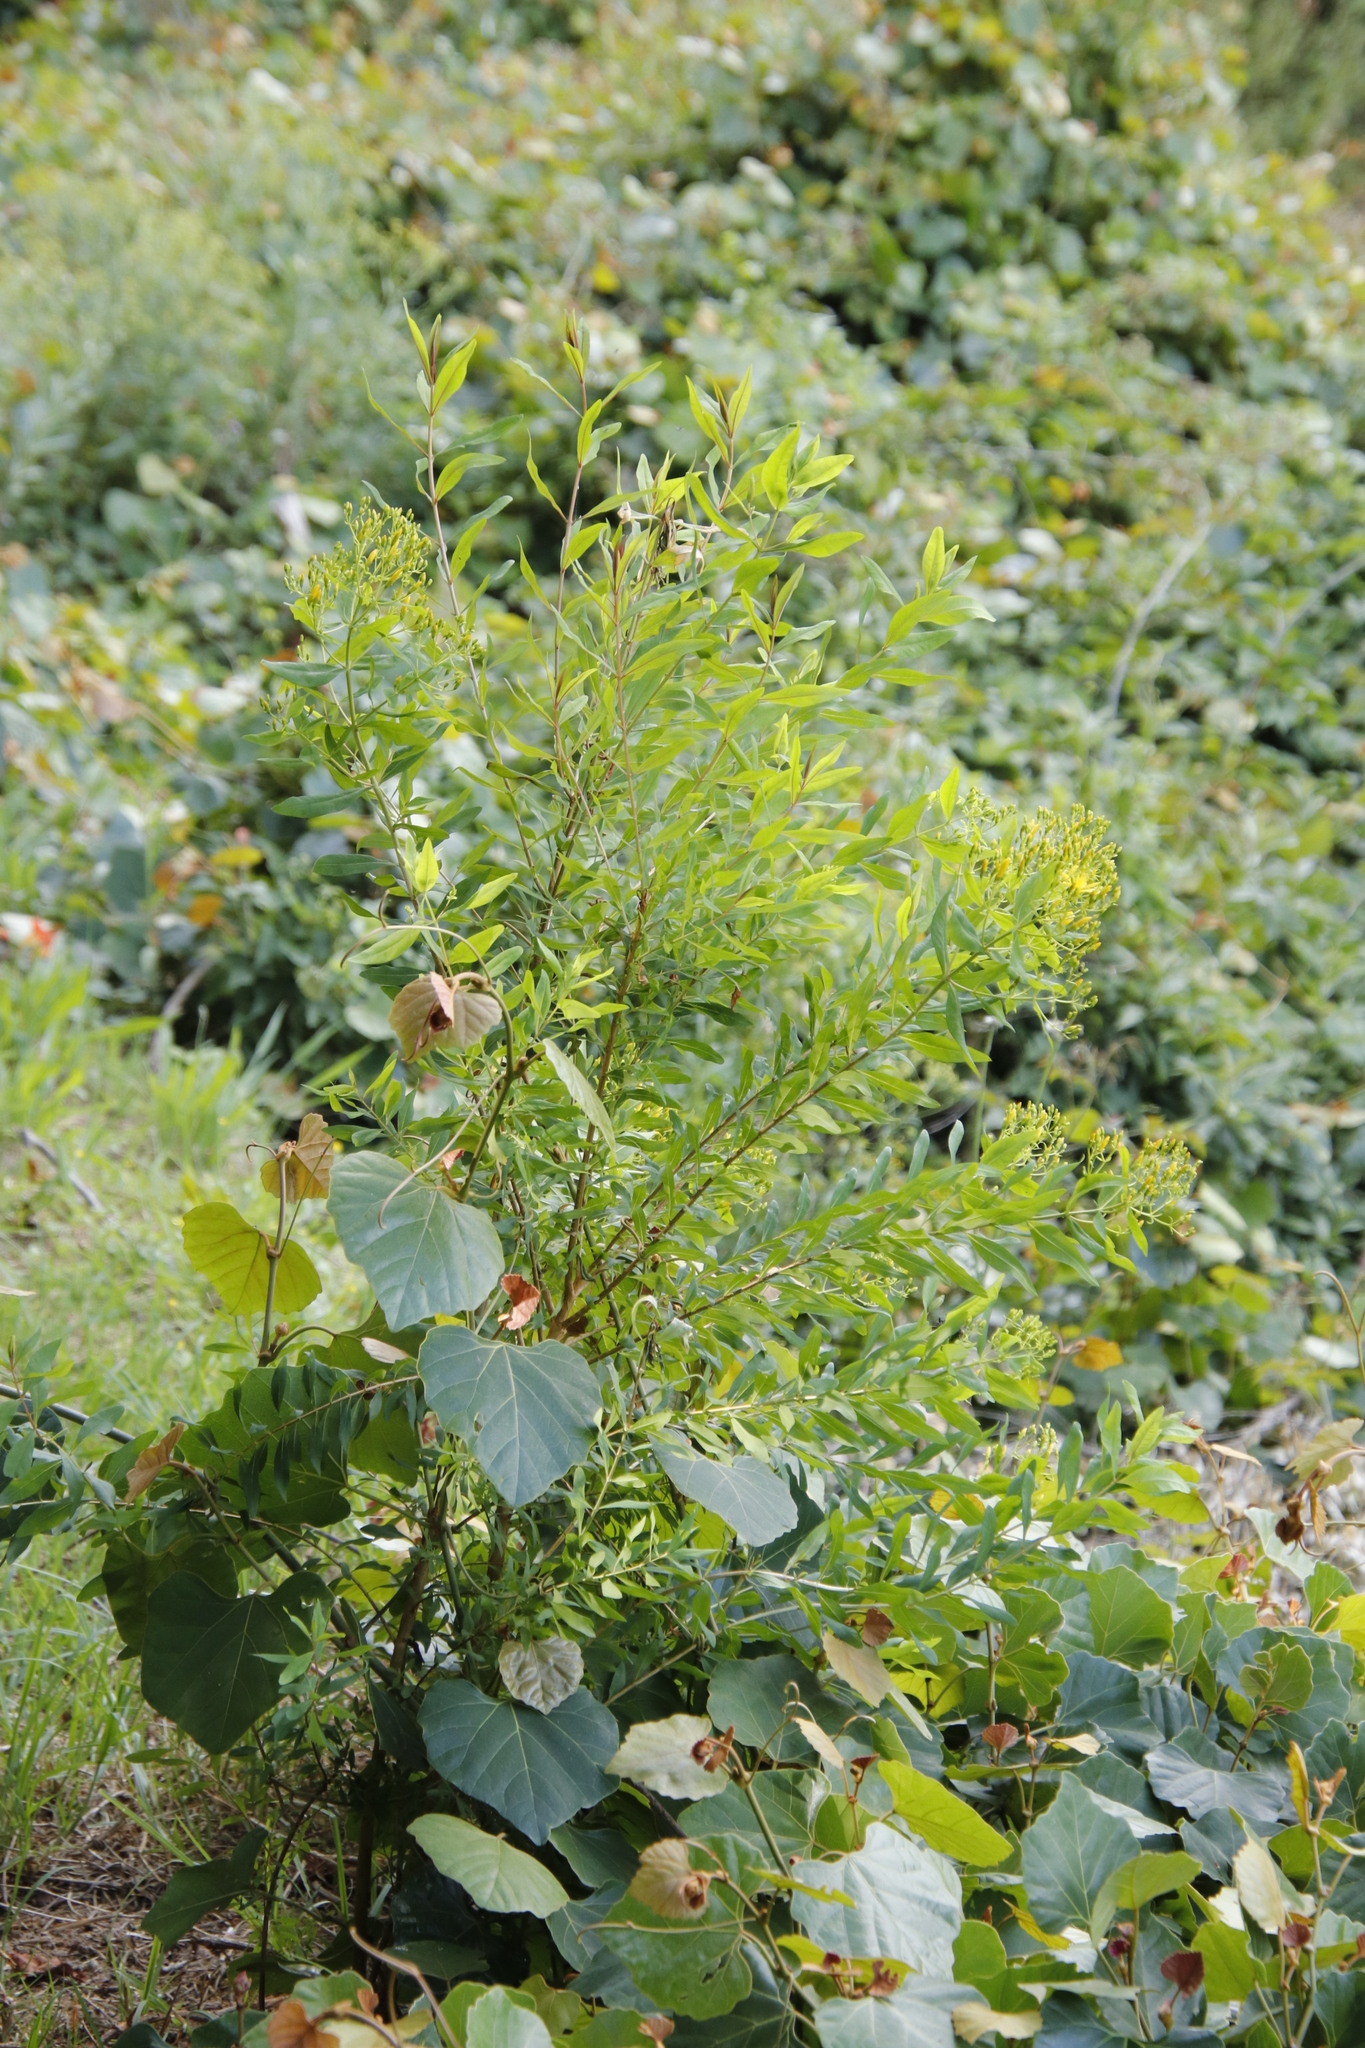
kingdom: Plantae
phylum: Tracheophyta
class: Magnoliopsida
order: Malpighiales
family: Hypericaceae
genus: Hypericum
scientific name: Hypericum canariense
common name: Canary island st. johnswort
